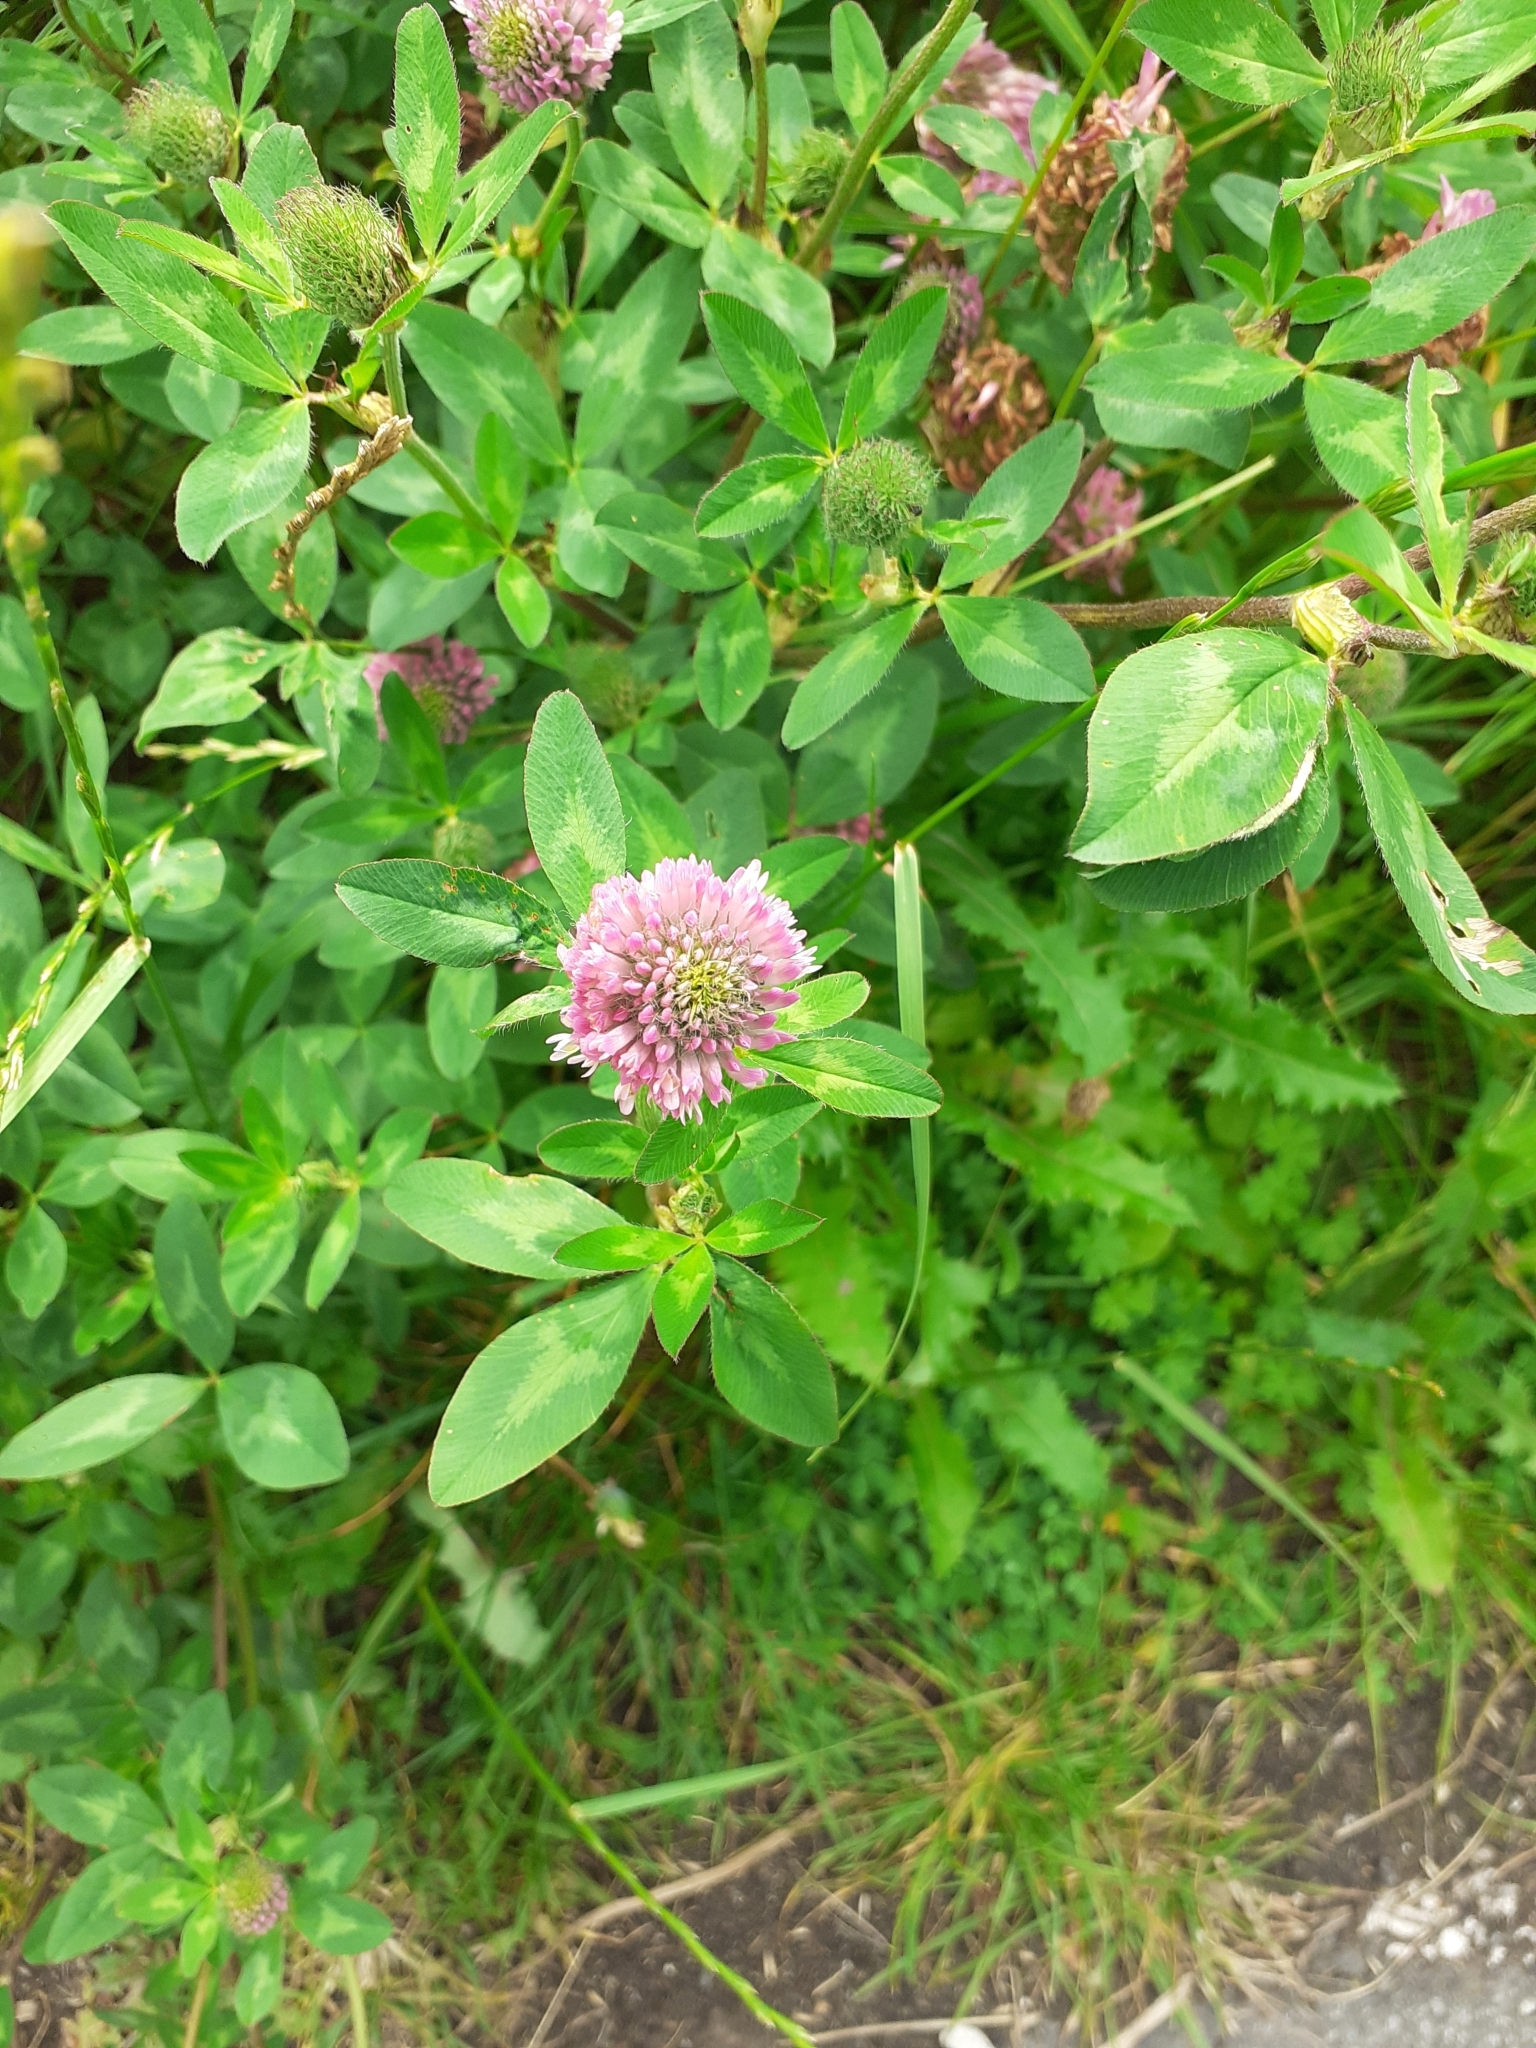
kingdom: Plantae
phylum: Tracheophyta
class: Magnoliopsida
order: Fabales
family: Fabaceae
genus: Trifolium
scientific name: Trifolium pratense
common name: Red clover
